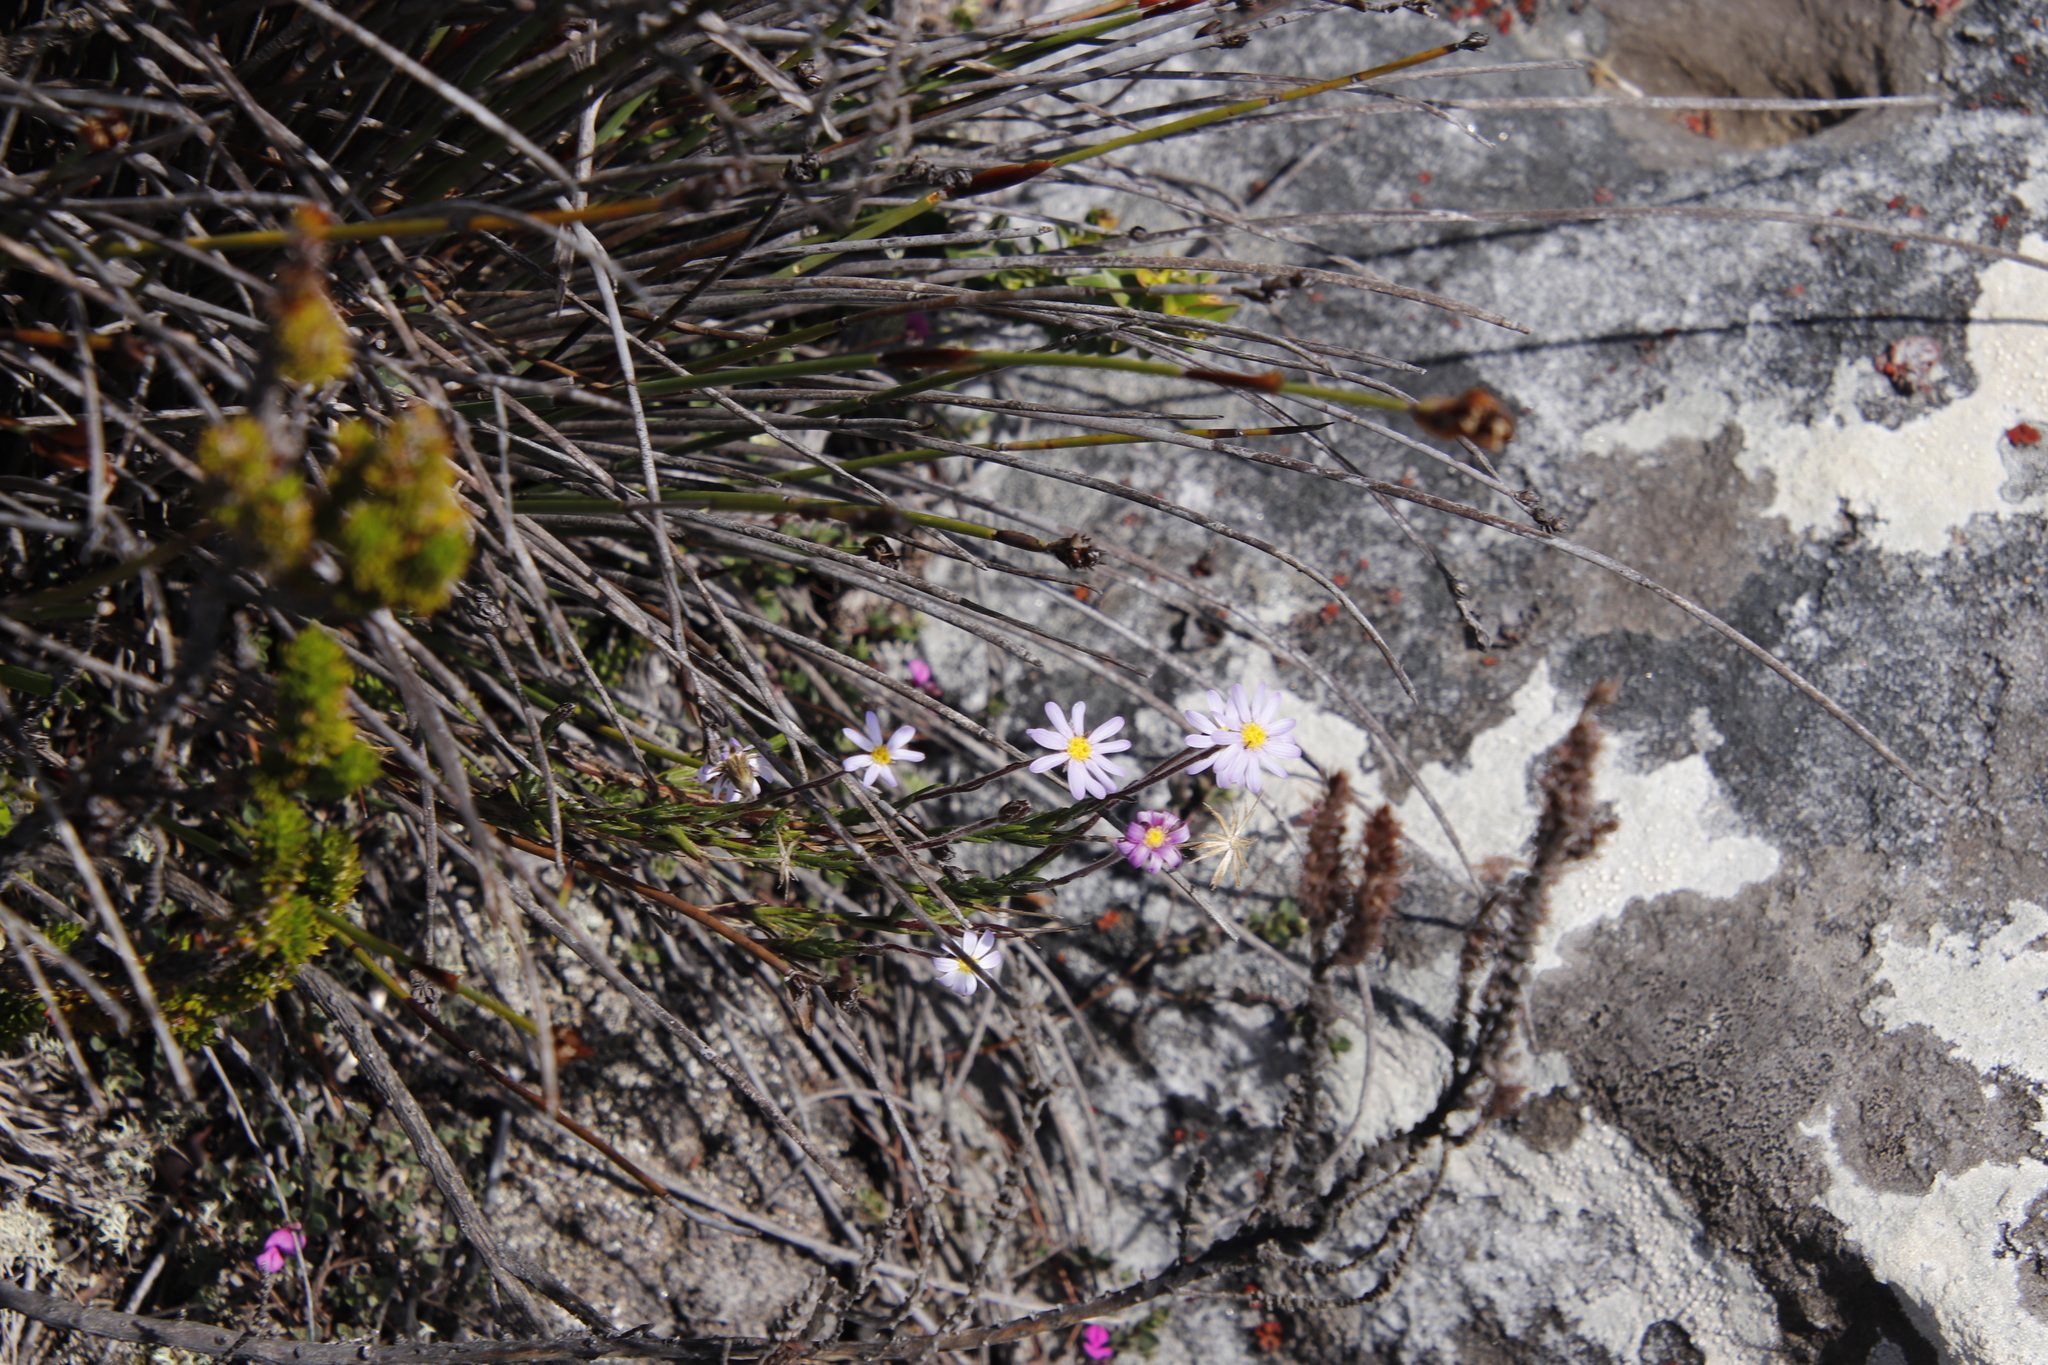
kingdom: Plantae
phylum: Tracheophyta
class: Magnoliopsida
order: Asterales
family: Asteraceae
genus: Zyrphelis
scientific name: Zyrphelis taxifolia
